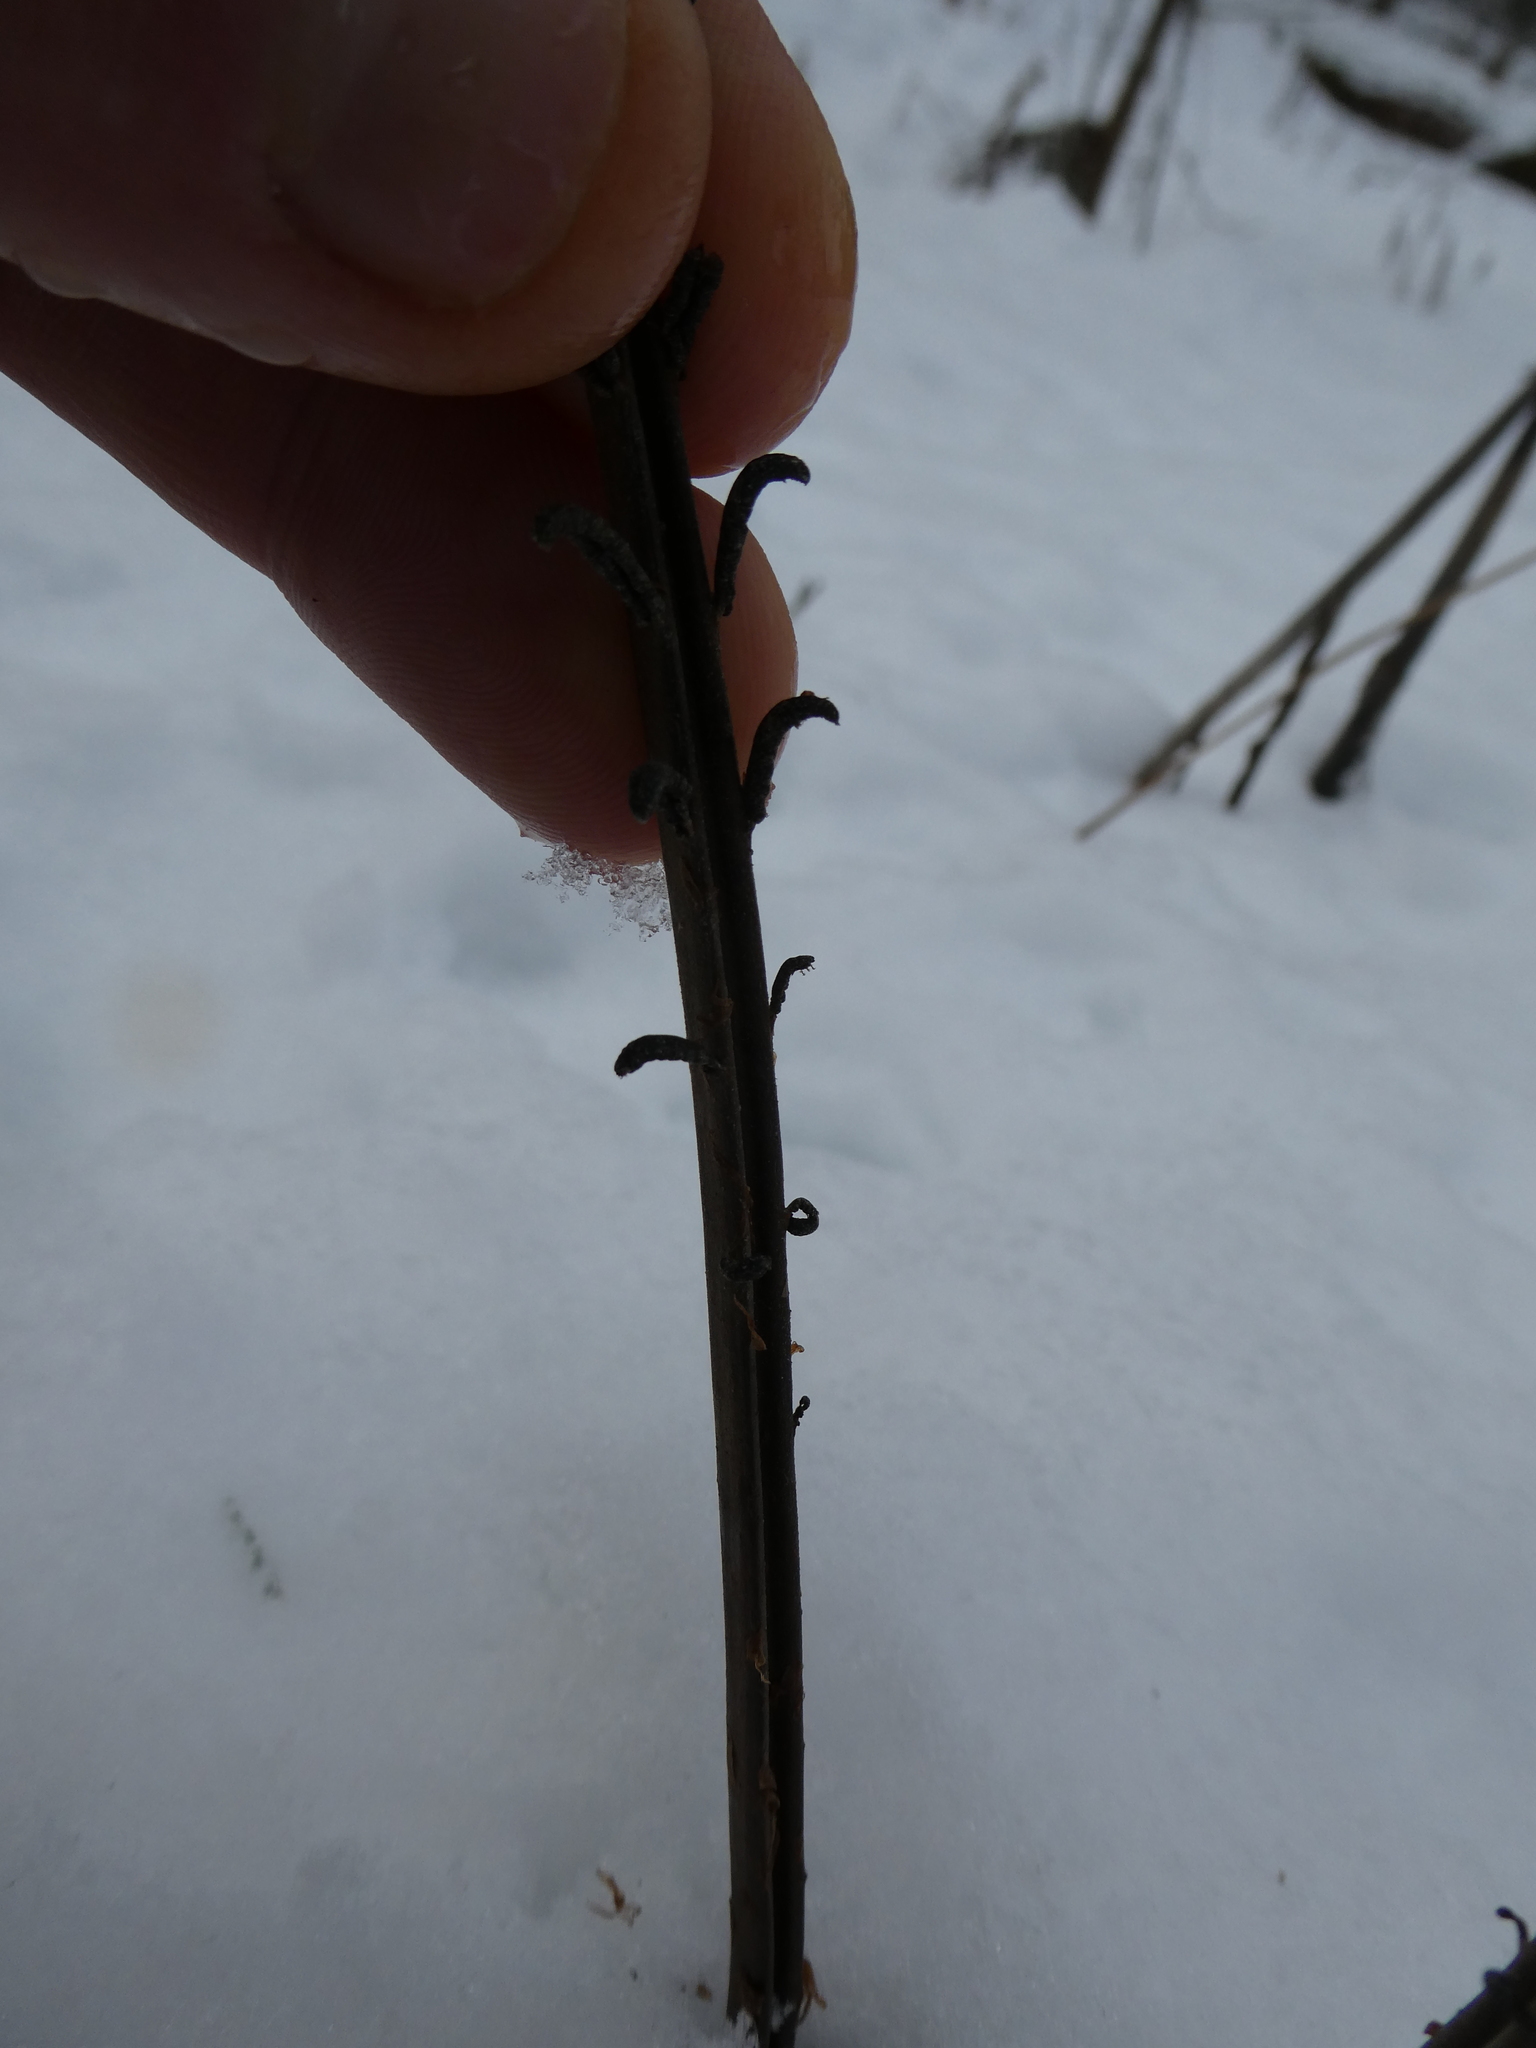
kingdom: Plantae
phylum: Tracheophyta
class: Polypodiopsida
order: Polypodiales
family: Onocleaceae
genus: Matteuccia
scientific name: Matteuccia struthiopteris
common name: Ostrich fern
